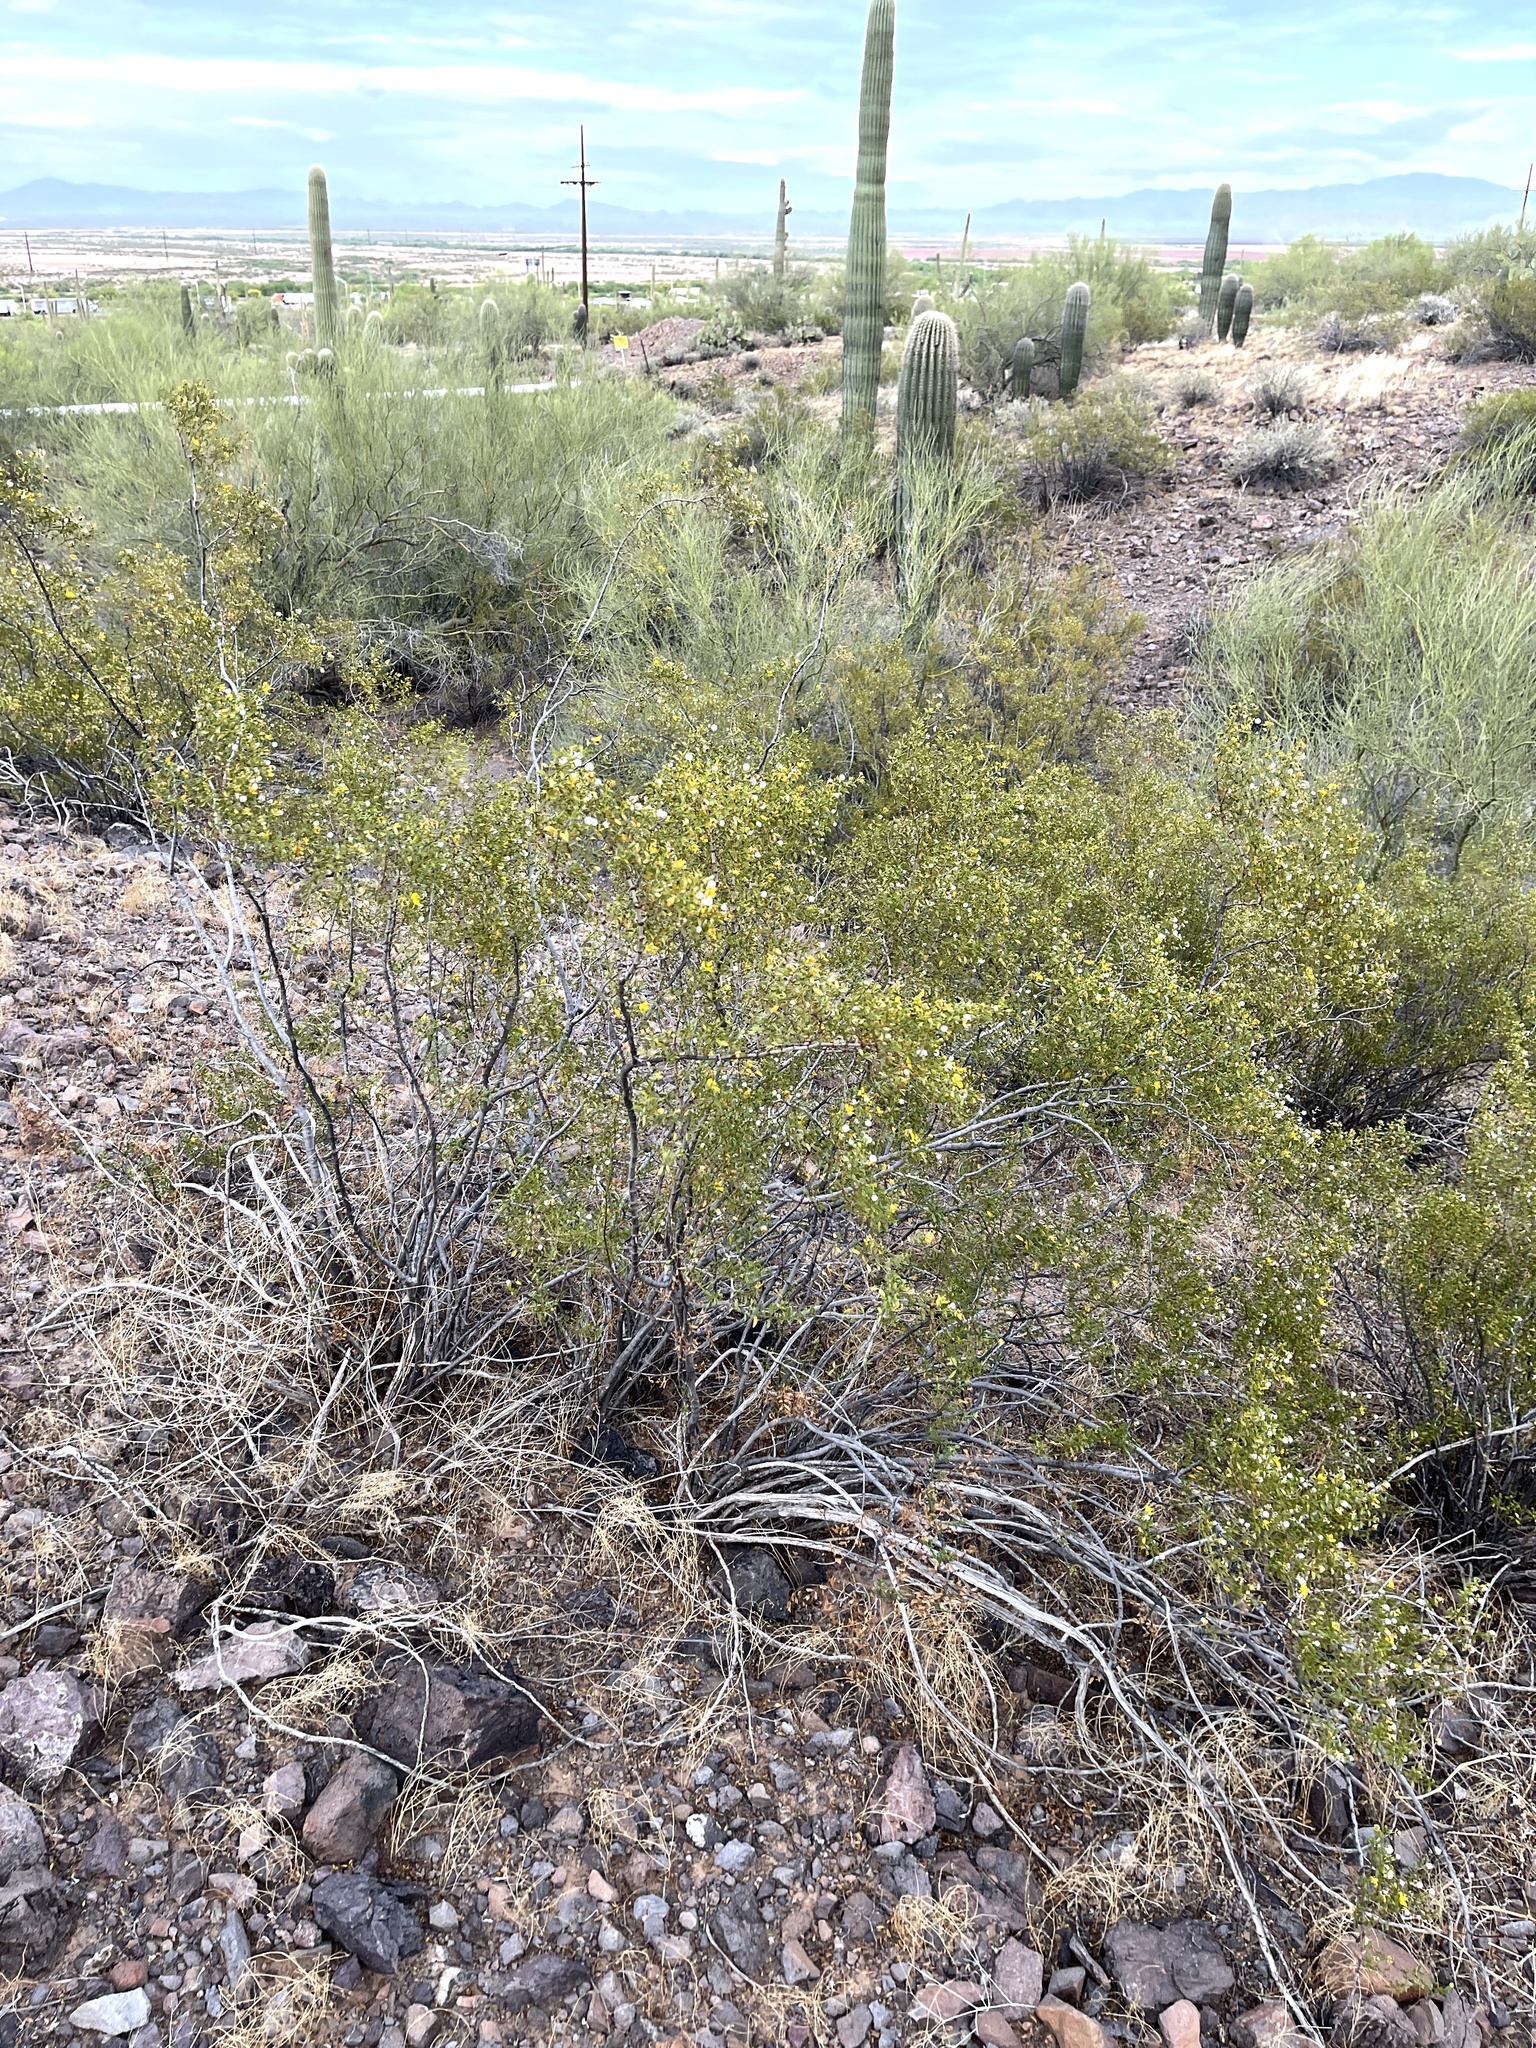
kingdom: Plantae
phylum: Tracheophyta
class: Magnoliopsida
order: Zygophyllales
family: Zygophyllaceae
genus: Larrea
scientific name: Larrea tridentata
